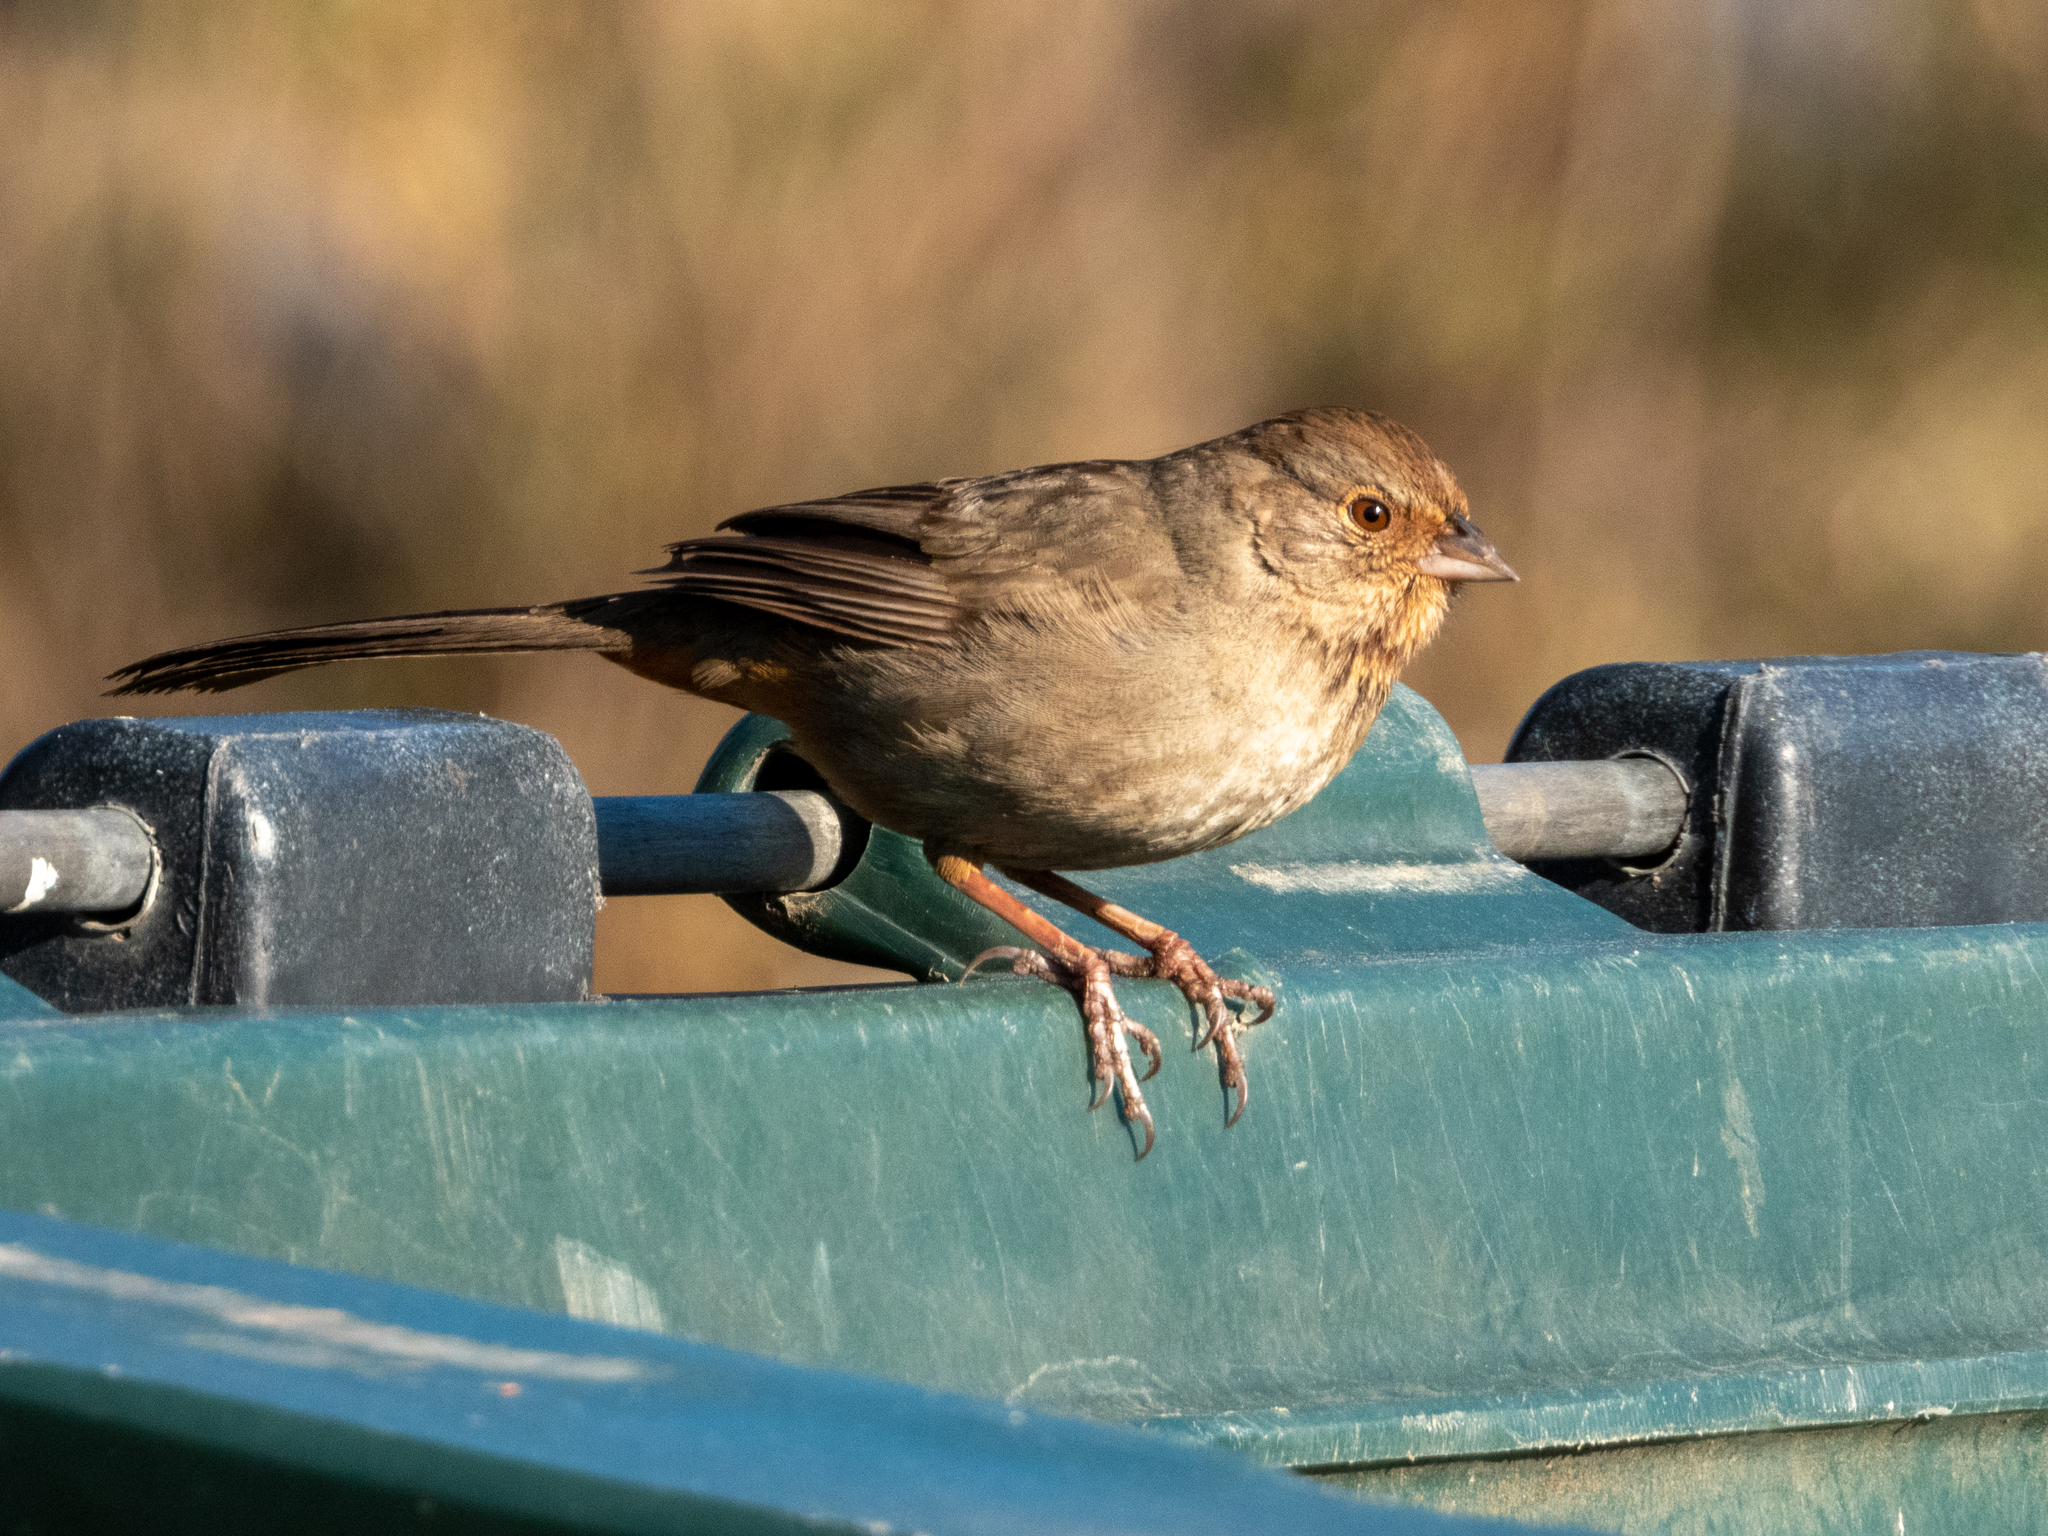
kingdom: Animalia
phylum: Chordata
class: Aves
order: Passeriformes
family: Passerellidae
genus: Melozone
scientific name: Melozone crissalis
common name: California towhee
